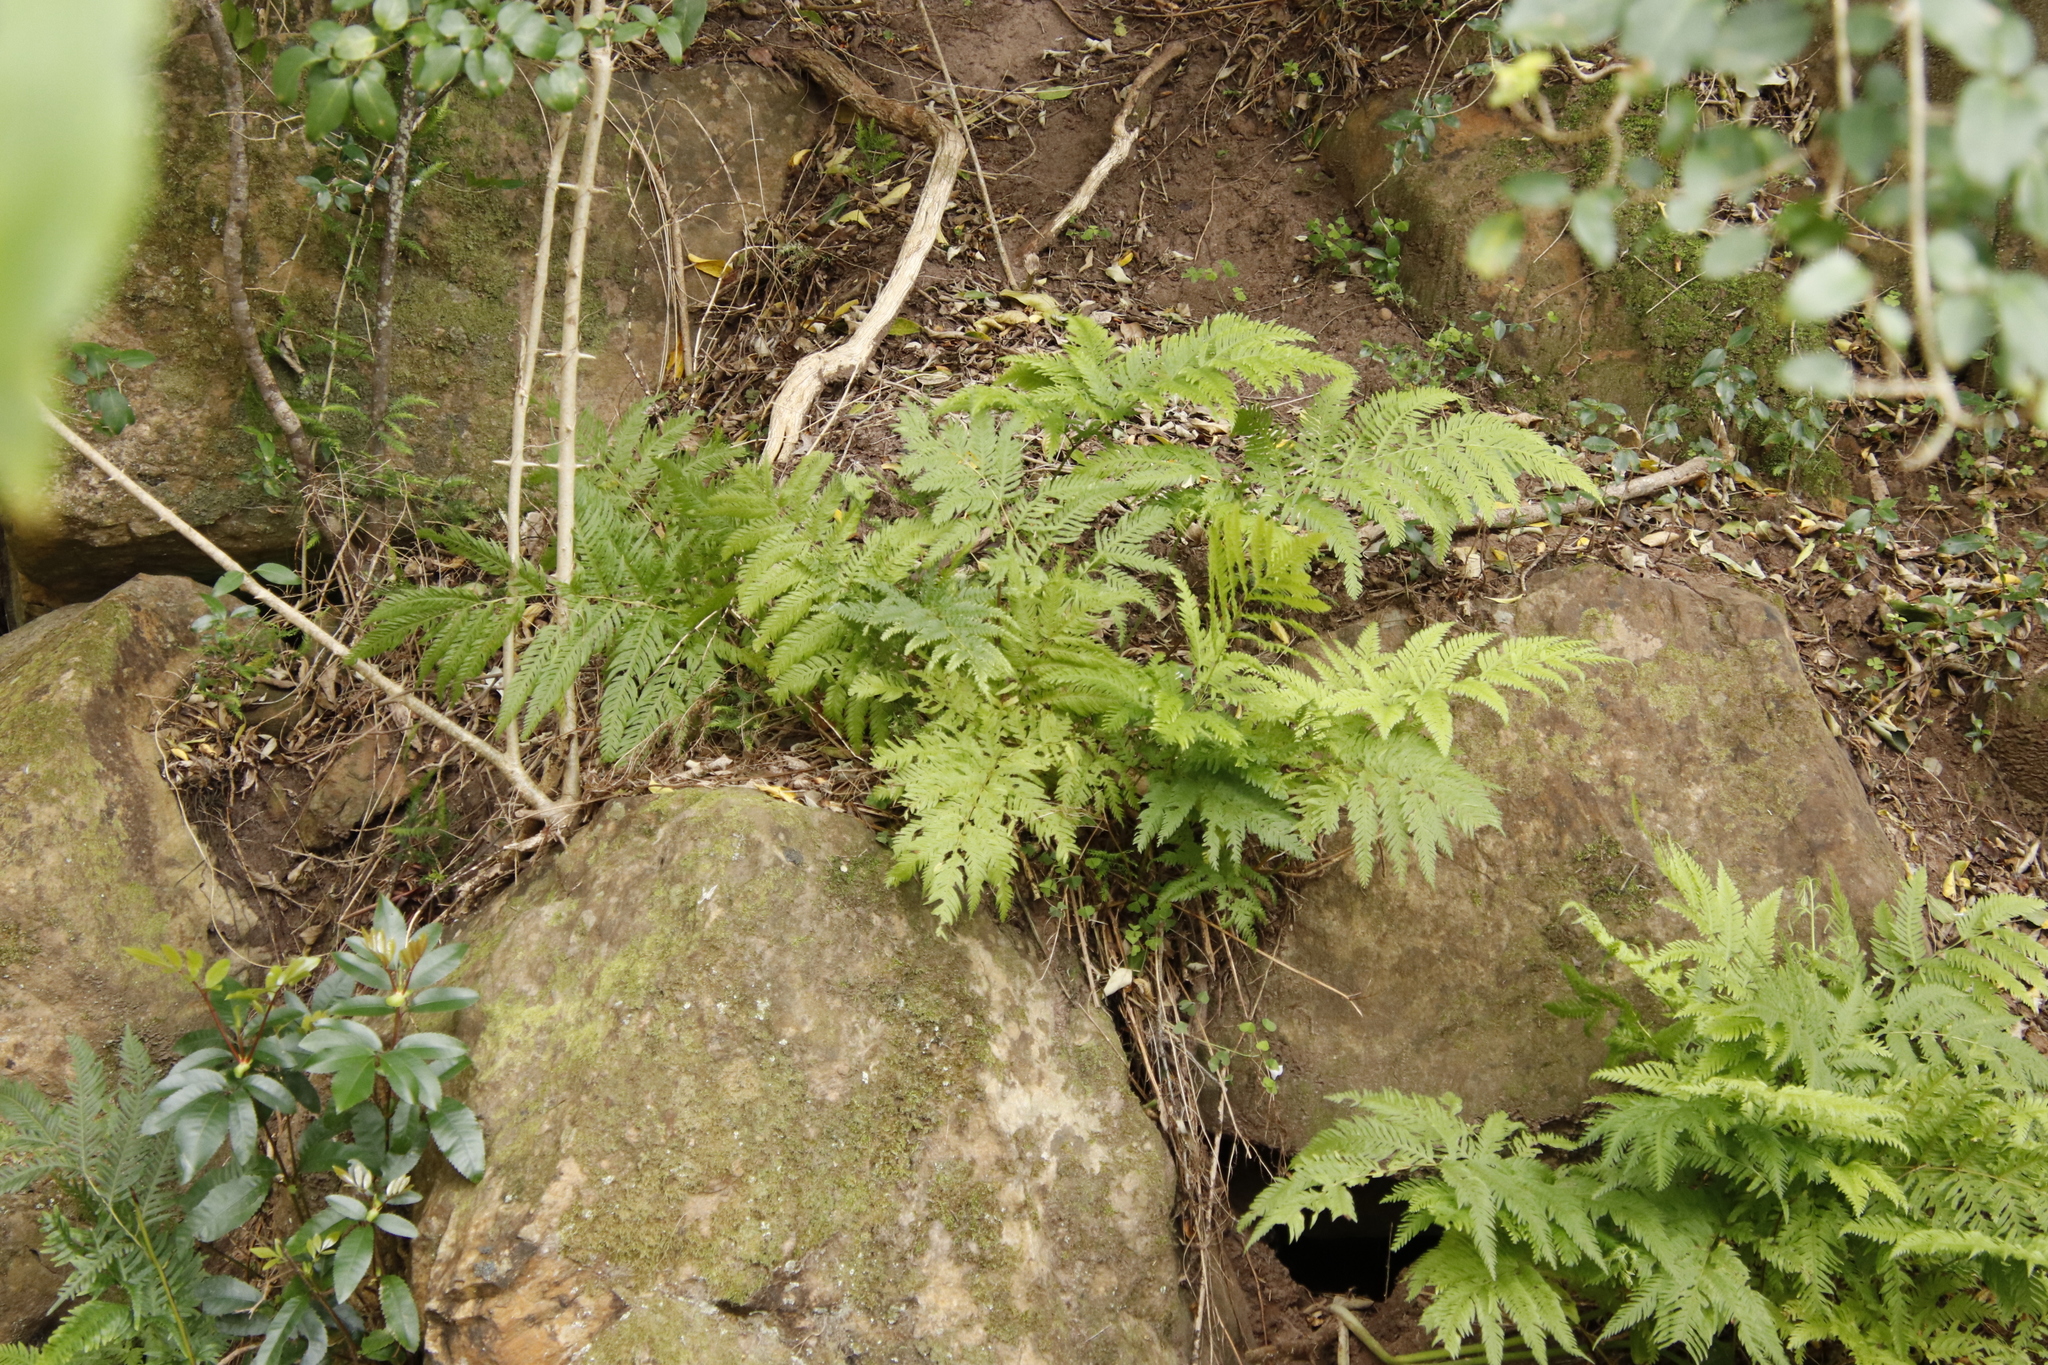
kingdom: Plantae
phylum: Tracheophyta
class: Polypodiopsida
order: Polypodiales
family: Pteridaceae
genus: Pteris
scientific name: Pteris dentata
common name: Toothed brake
